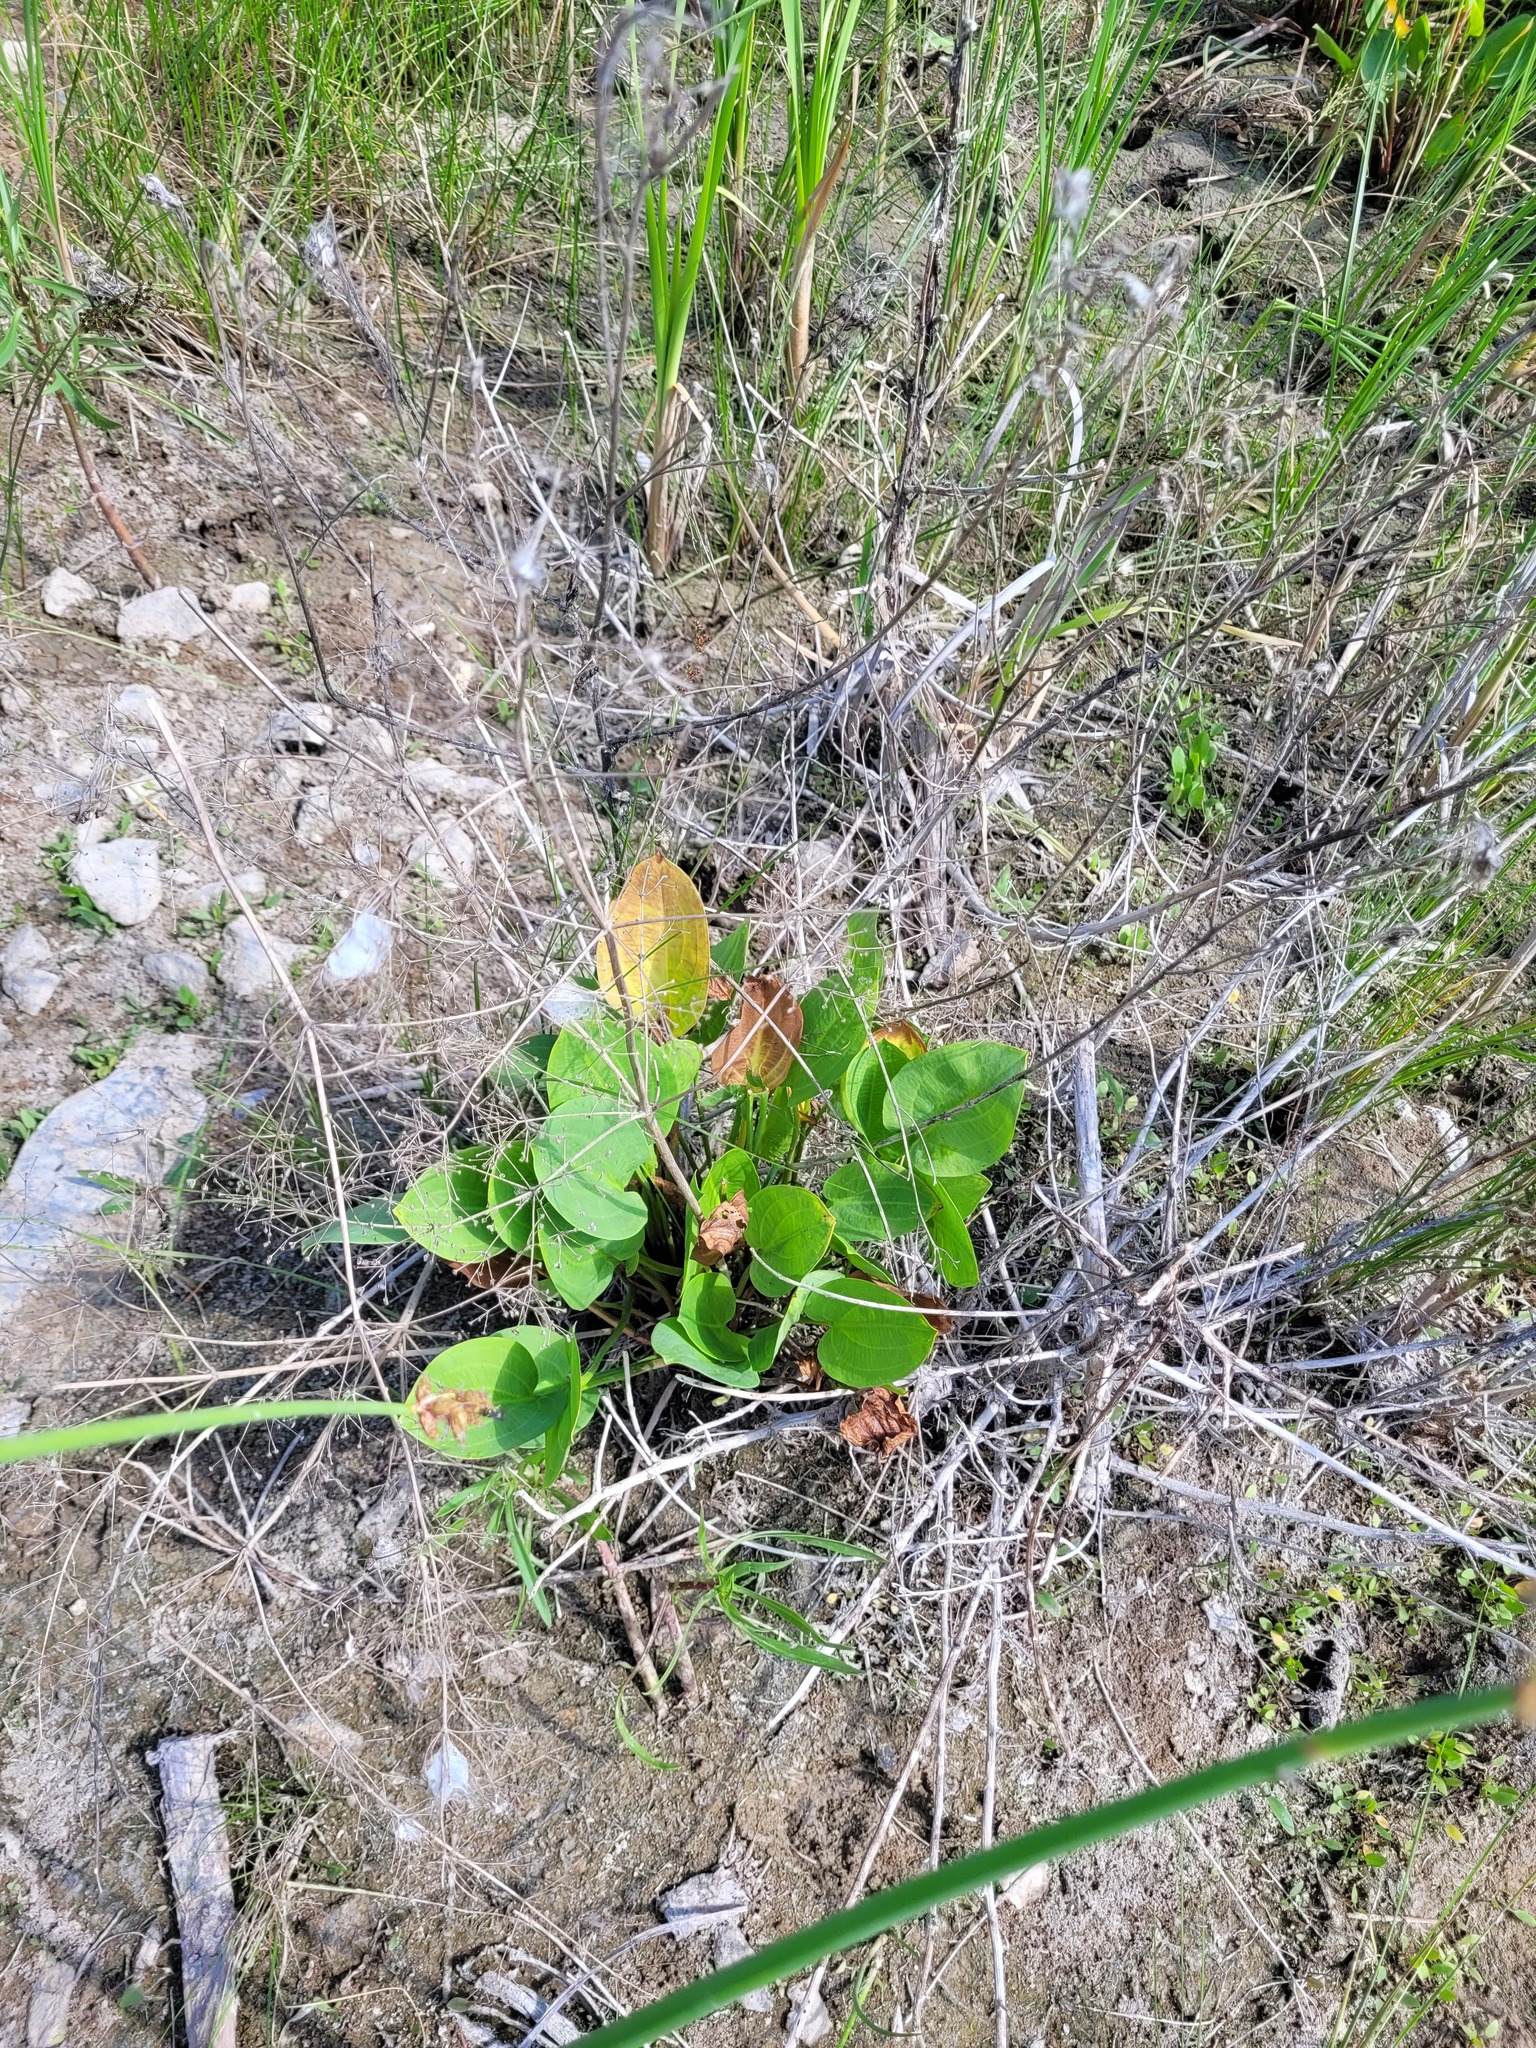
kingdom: Plantae
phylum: Tracheophyta
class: Liliopsida
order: Alismatales
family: Alismataceae
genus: Alisma
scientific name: Alisma plantago-aquatica
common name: Water-plantain
